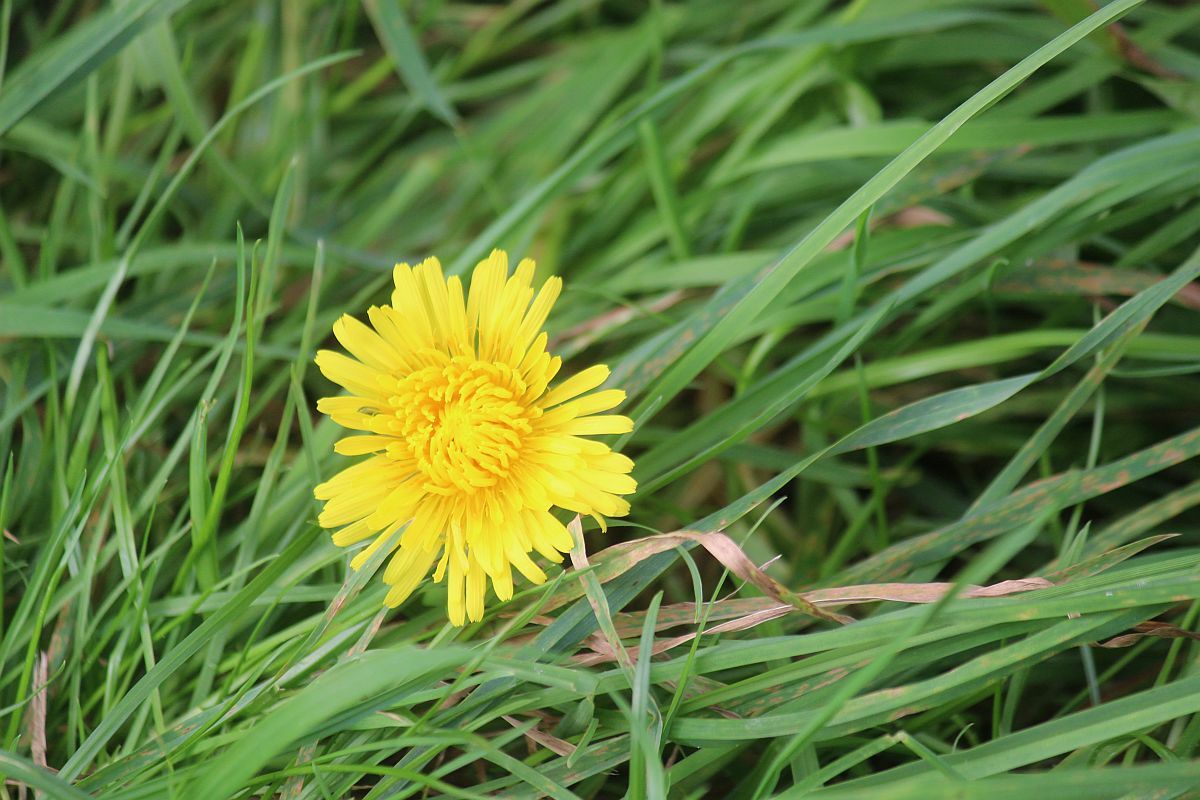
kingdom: Plantae
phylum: Tracheophyta
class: Magnoliopsida
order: Asterales
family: Asteraceae
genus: Taraxacum
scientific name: Taraxacum officinale
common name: Common dandelion
